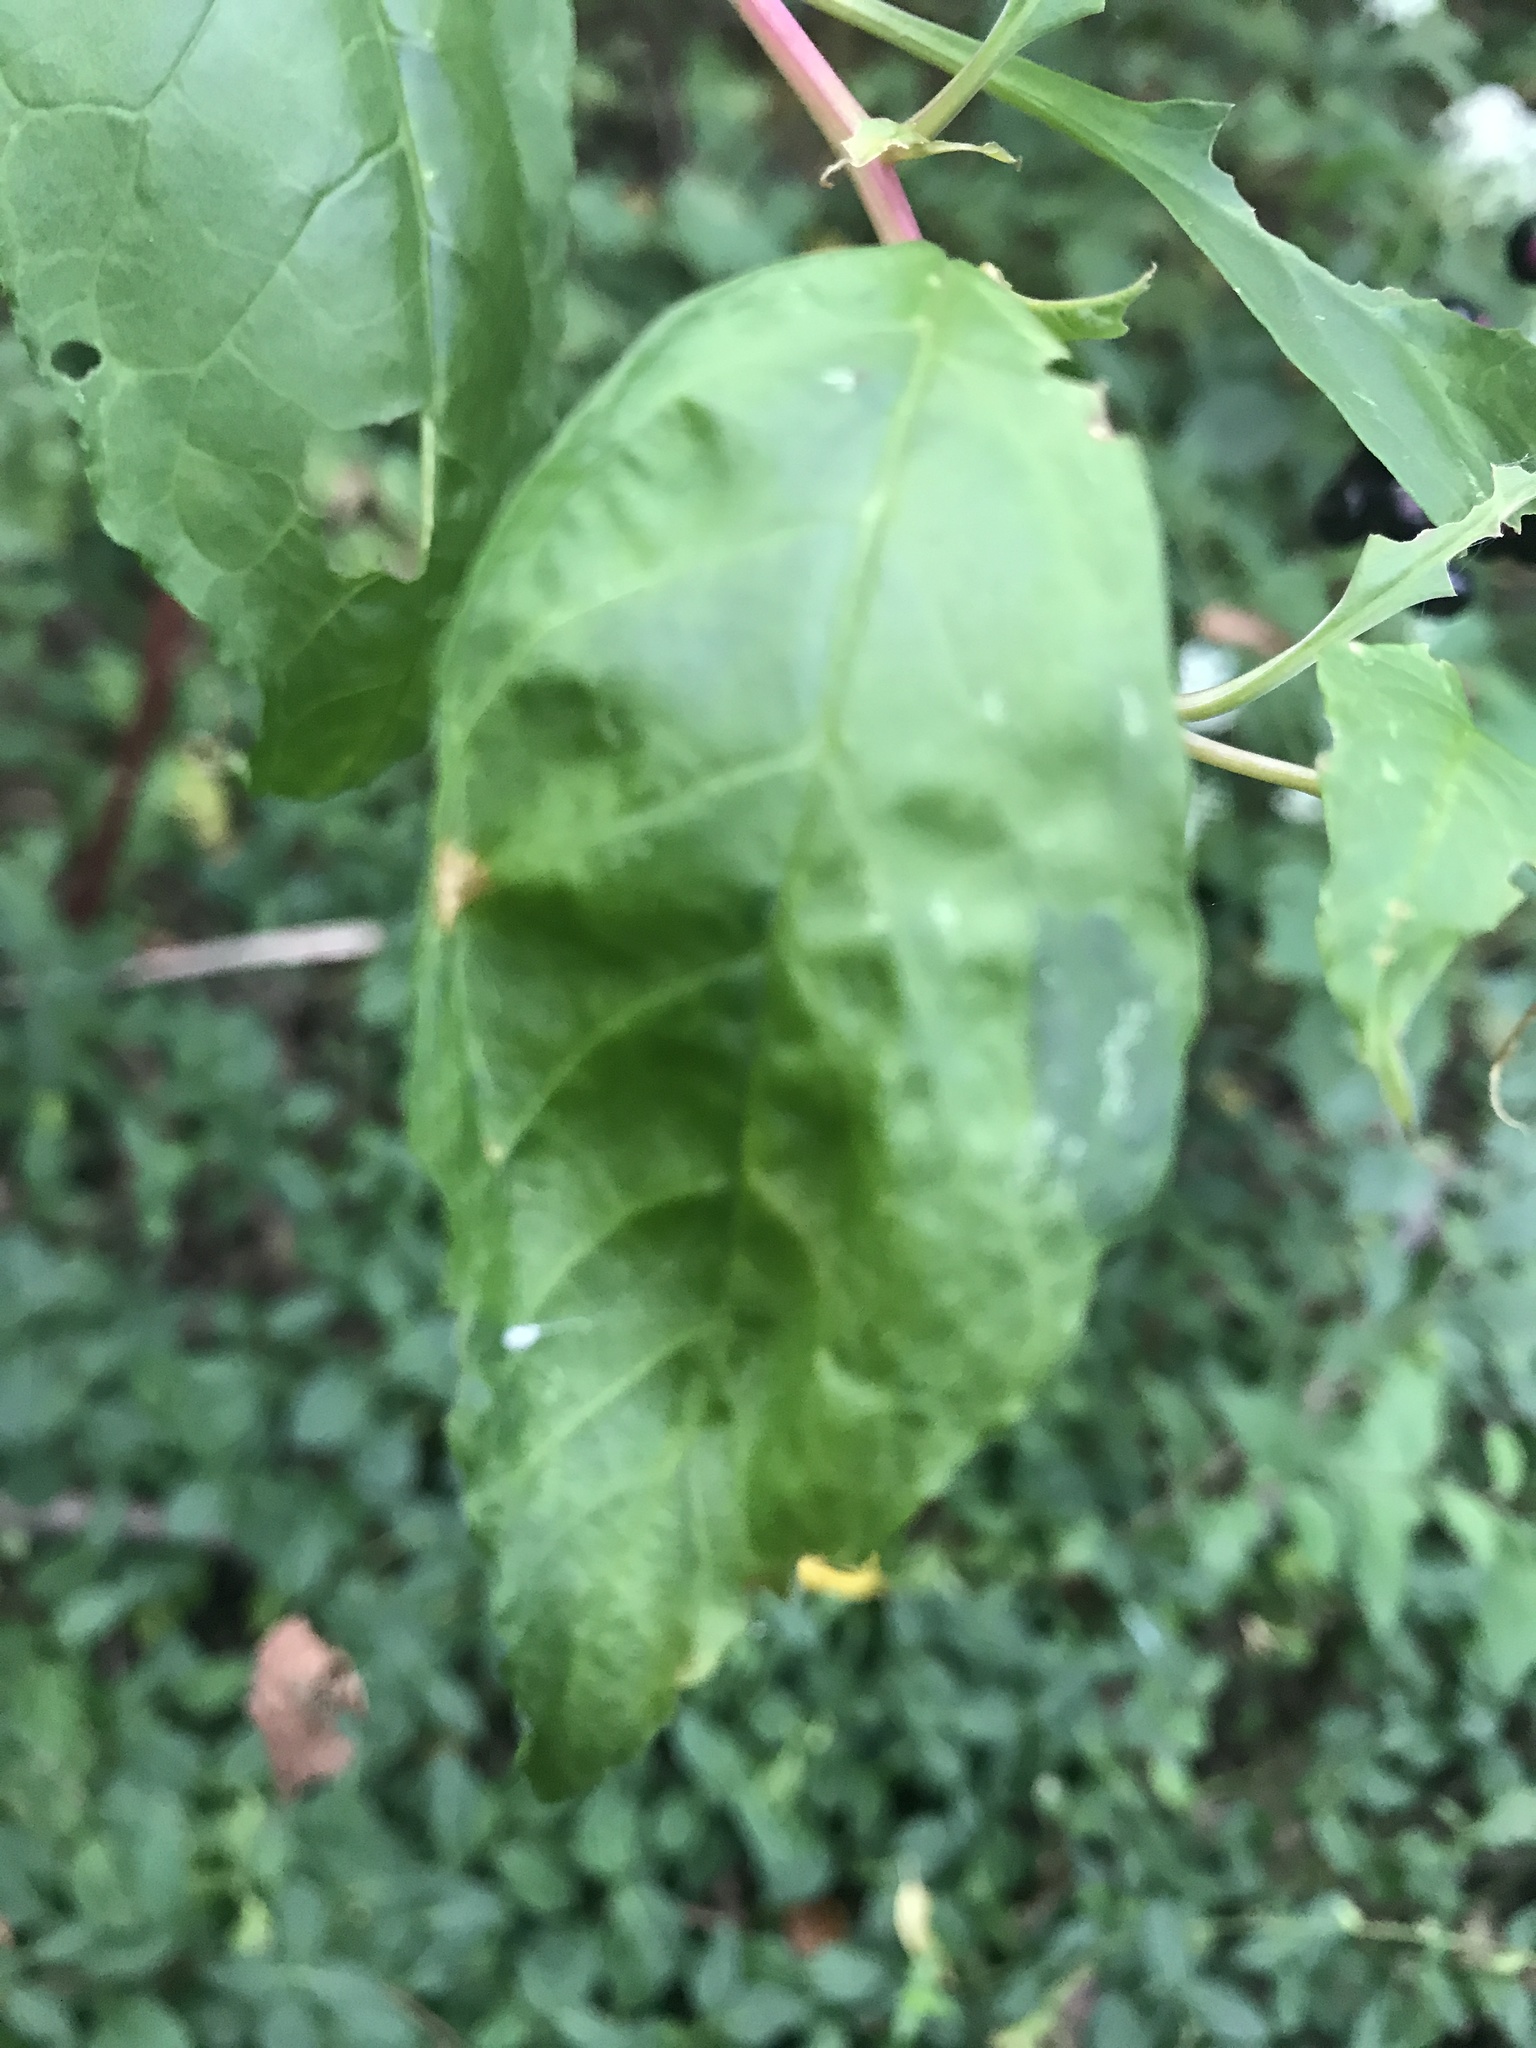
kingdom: Plantae
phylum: Tracheophyta
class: Magnoliopsida
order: Caryophyllales
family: Phytolaccaceae
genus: Phytolacca
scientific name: Phytolacca americana
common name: American pokeweed
